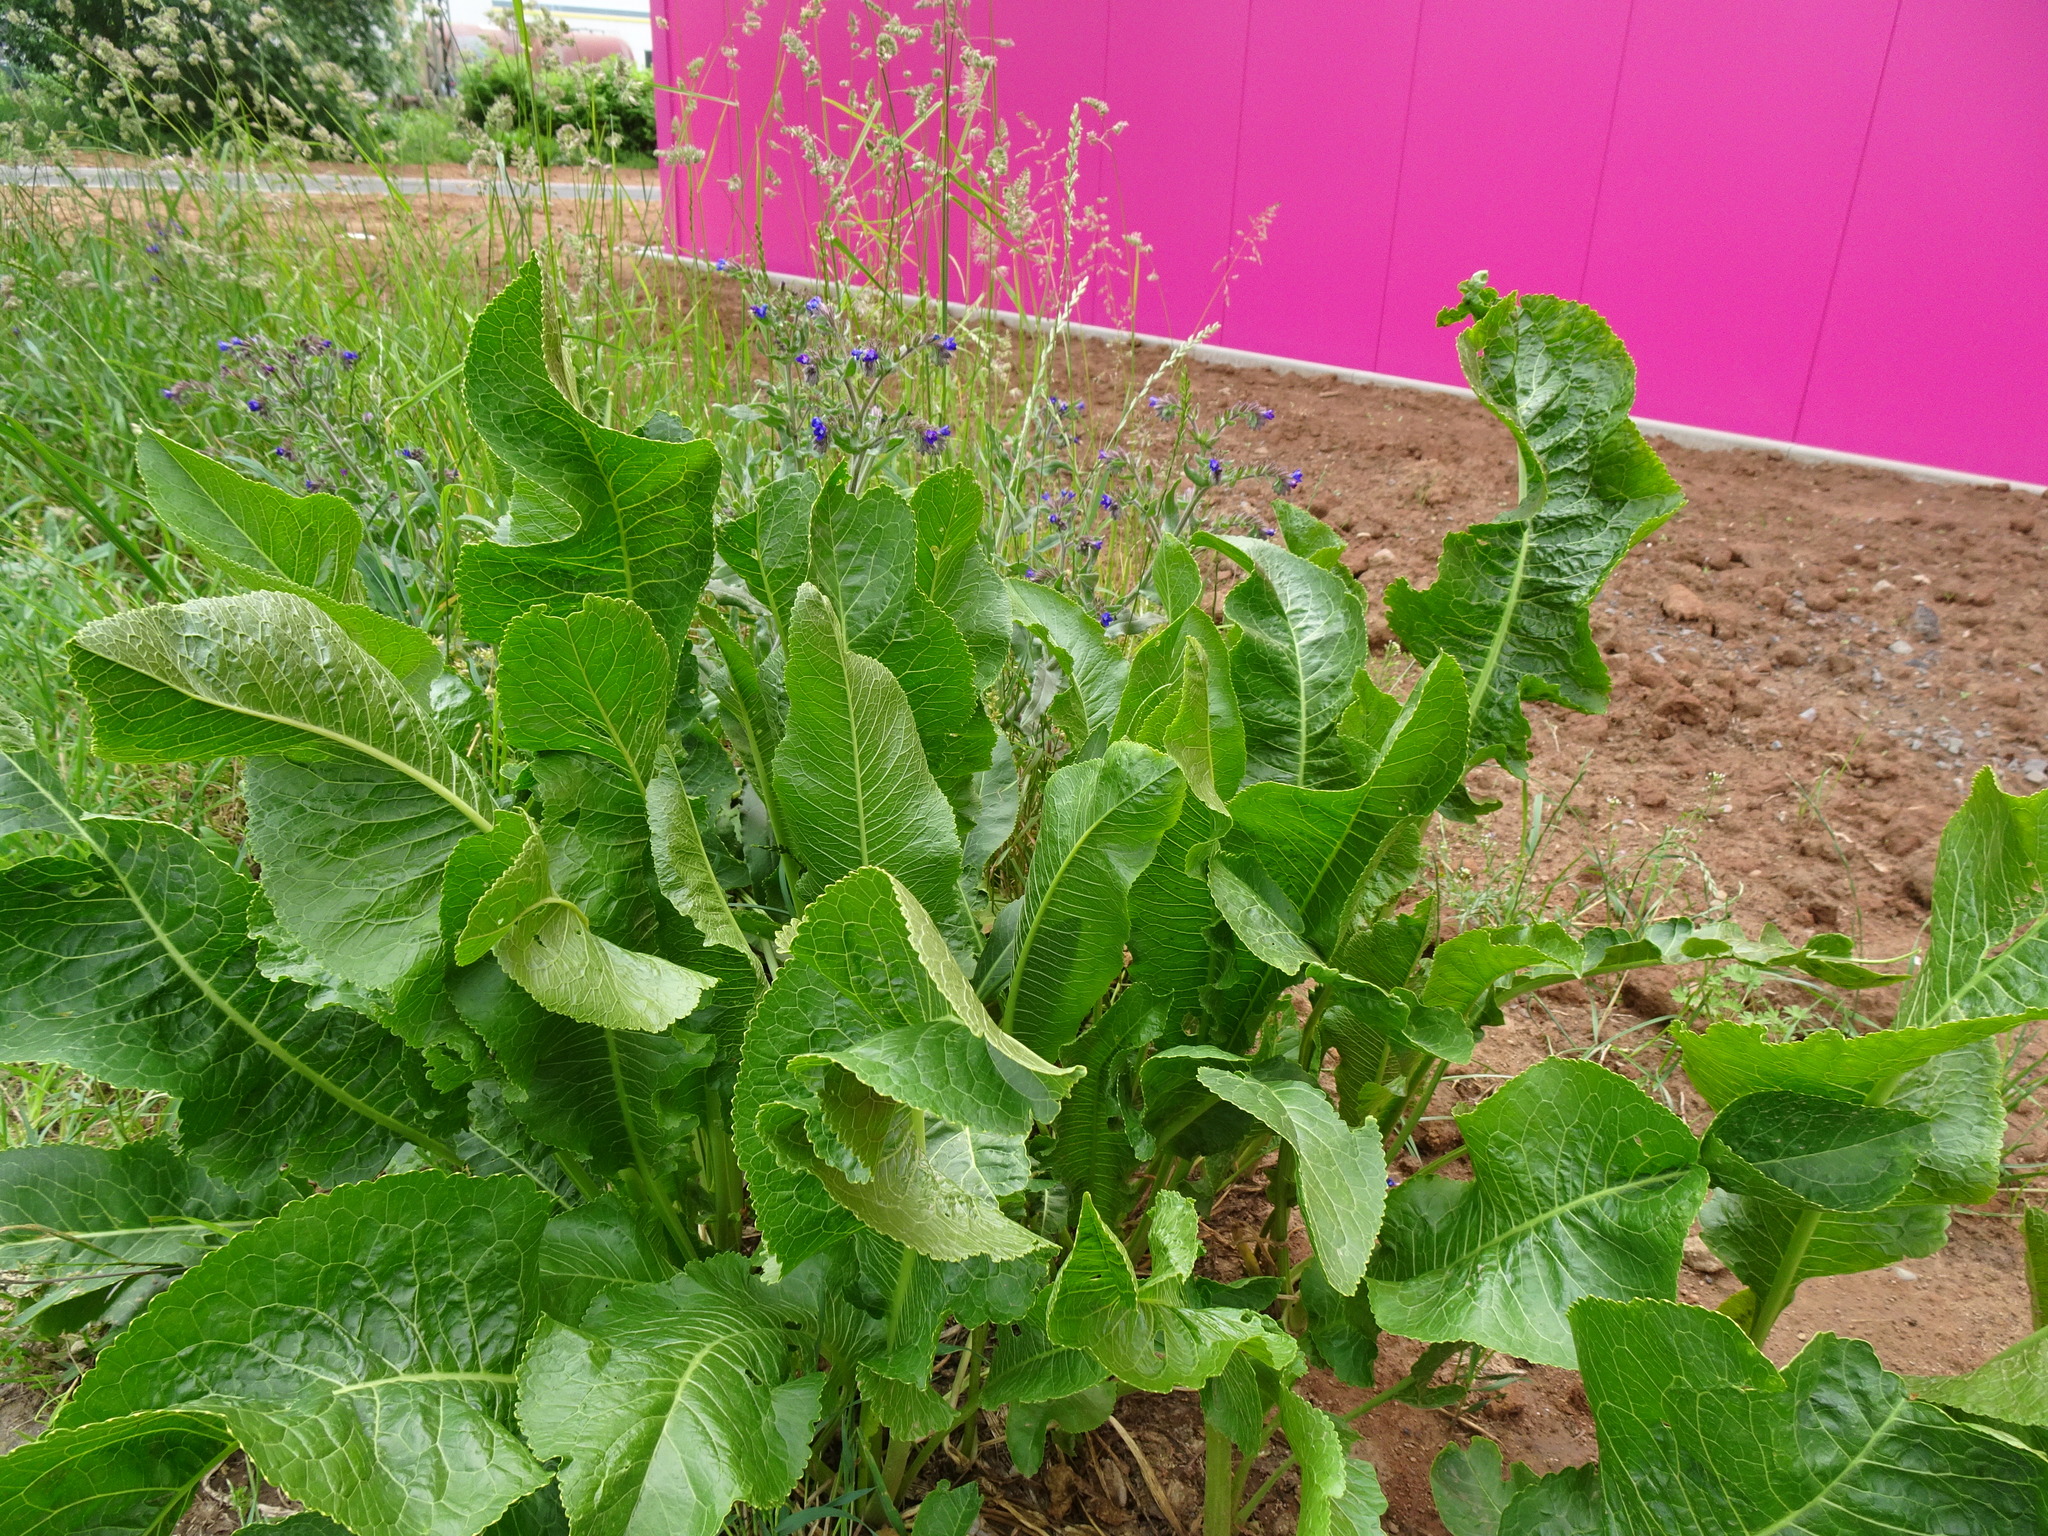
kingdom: Plantae
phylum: Tracheophyta
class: Magnoliopsida
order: Brassicales
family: Brassicaceae
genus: Armoracia
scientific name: Armoracia rusticana
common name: Horseradish
